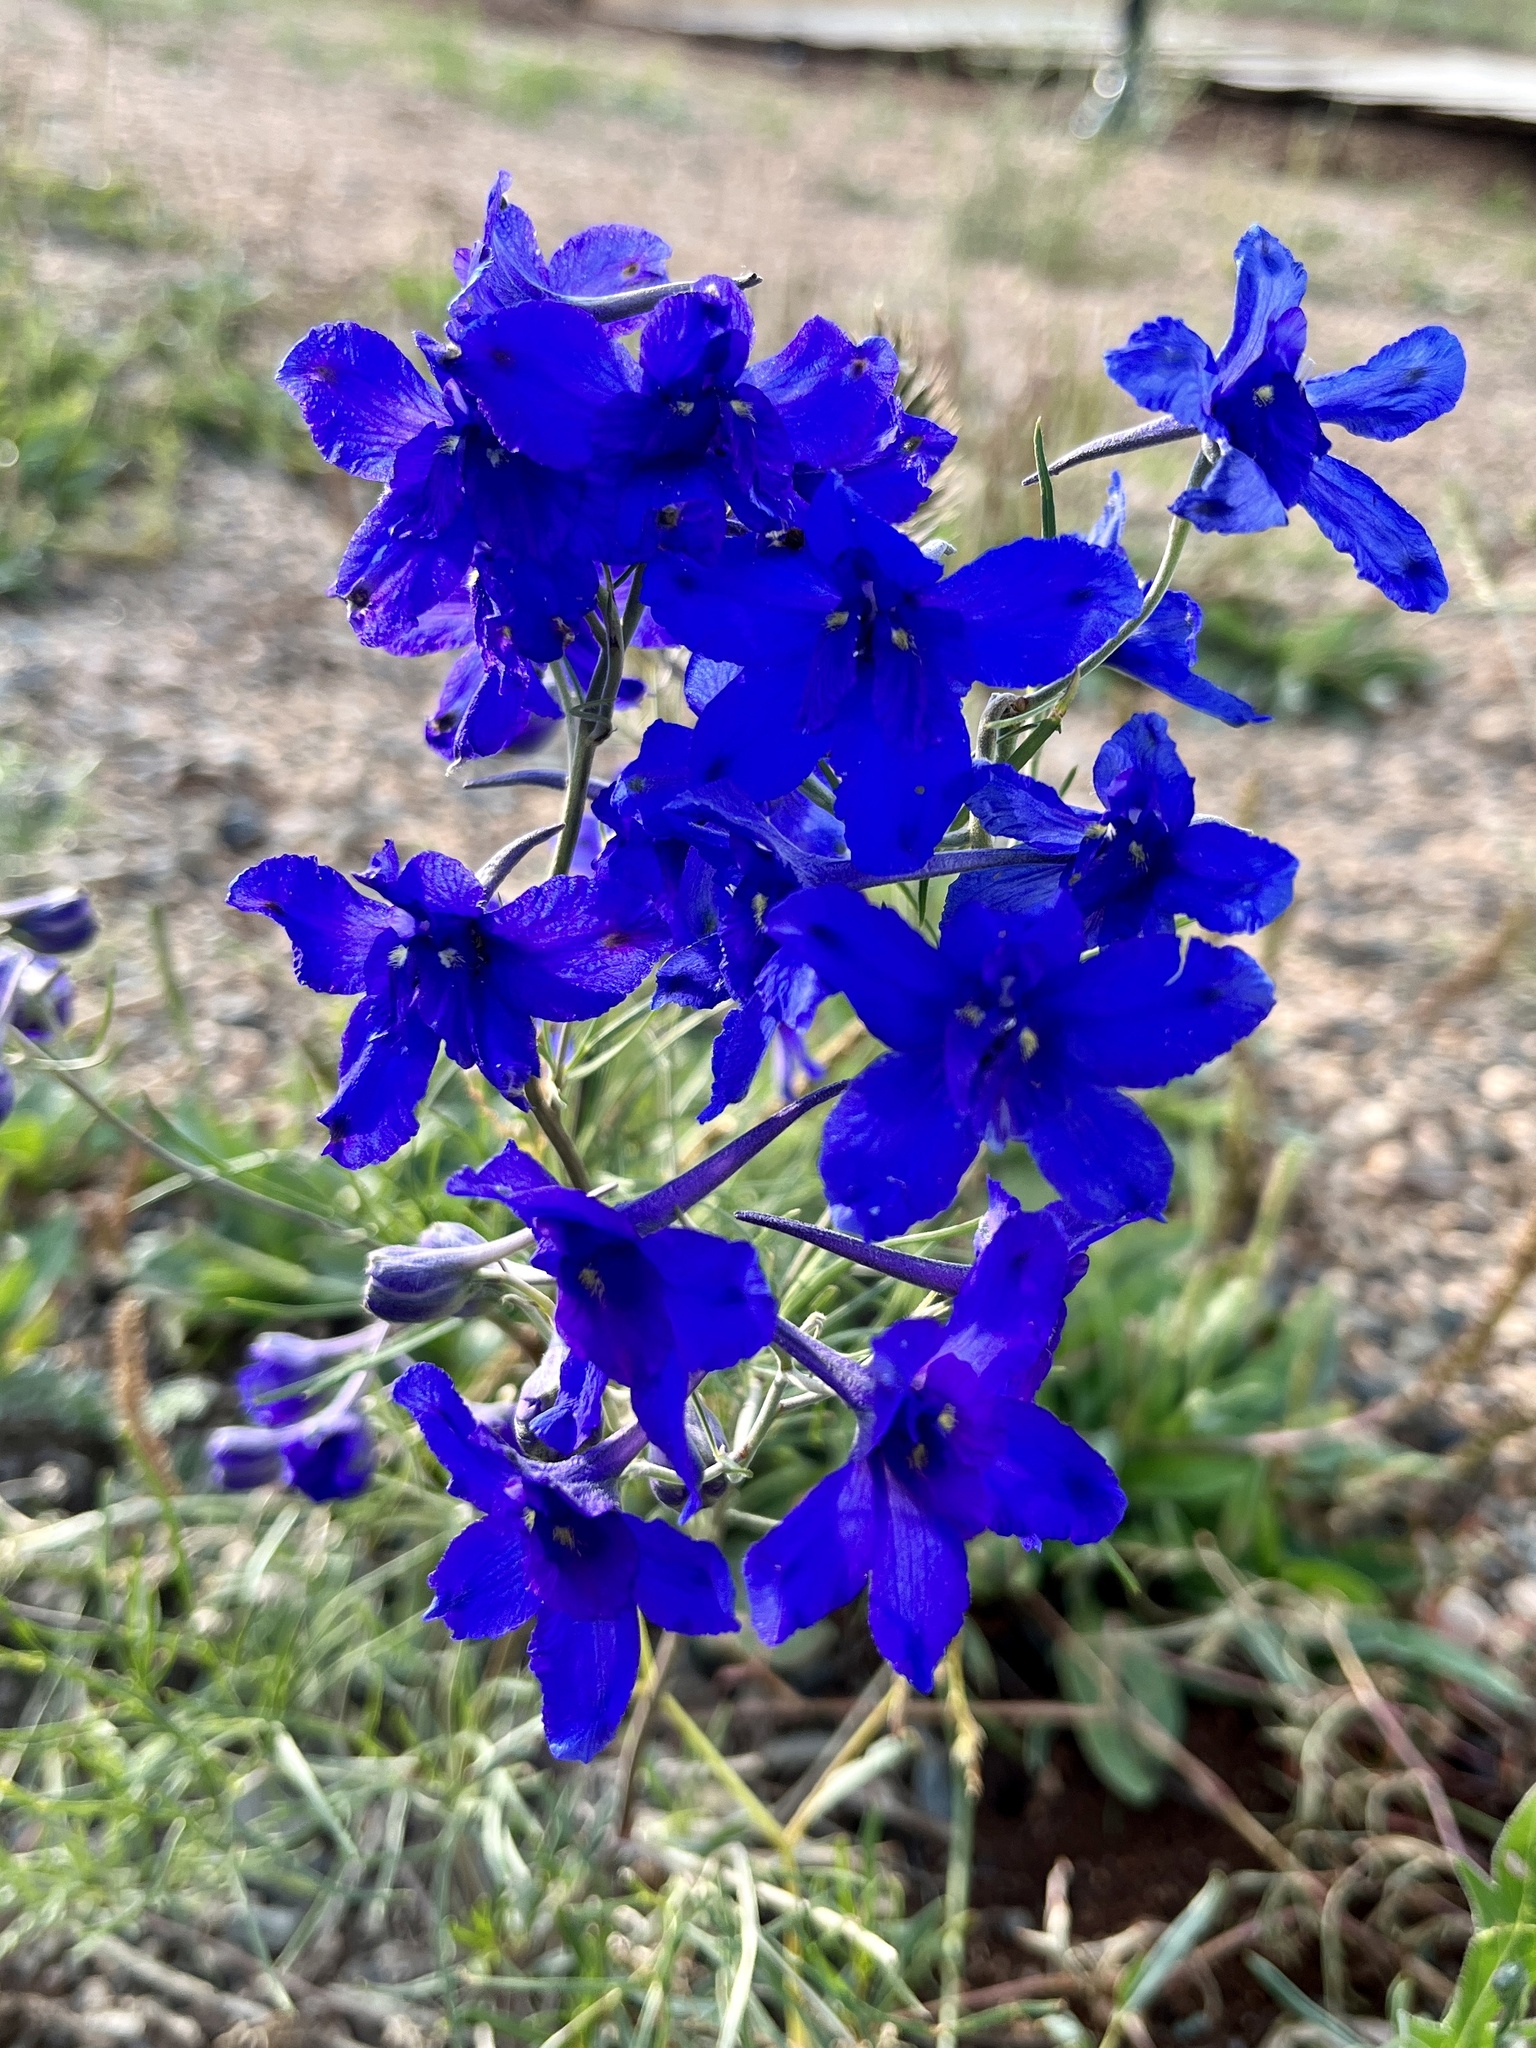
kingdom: Plantae
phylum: Tracheophyta
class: Magnoliopsida
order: Ranunculales
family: Ranunculaceae
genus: Delphinium
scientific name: Delphinium grandiflorum
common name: Siberian larkspur
